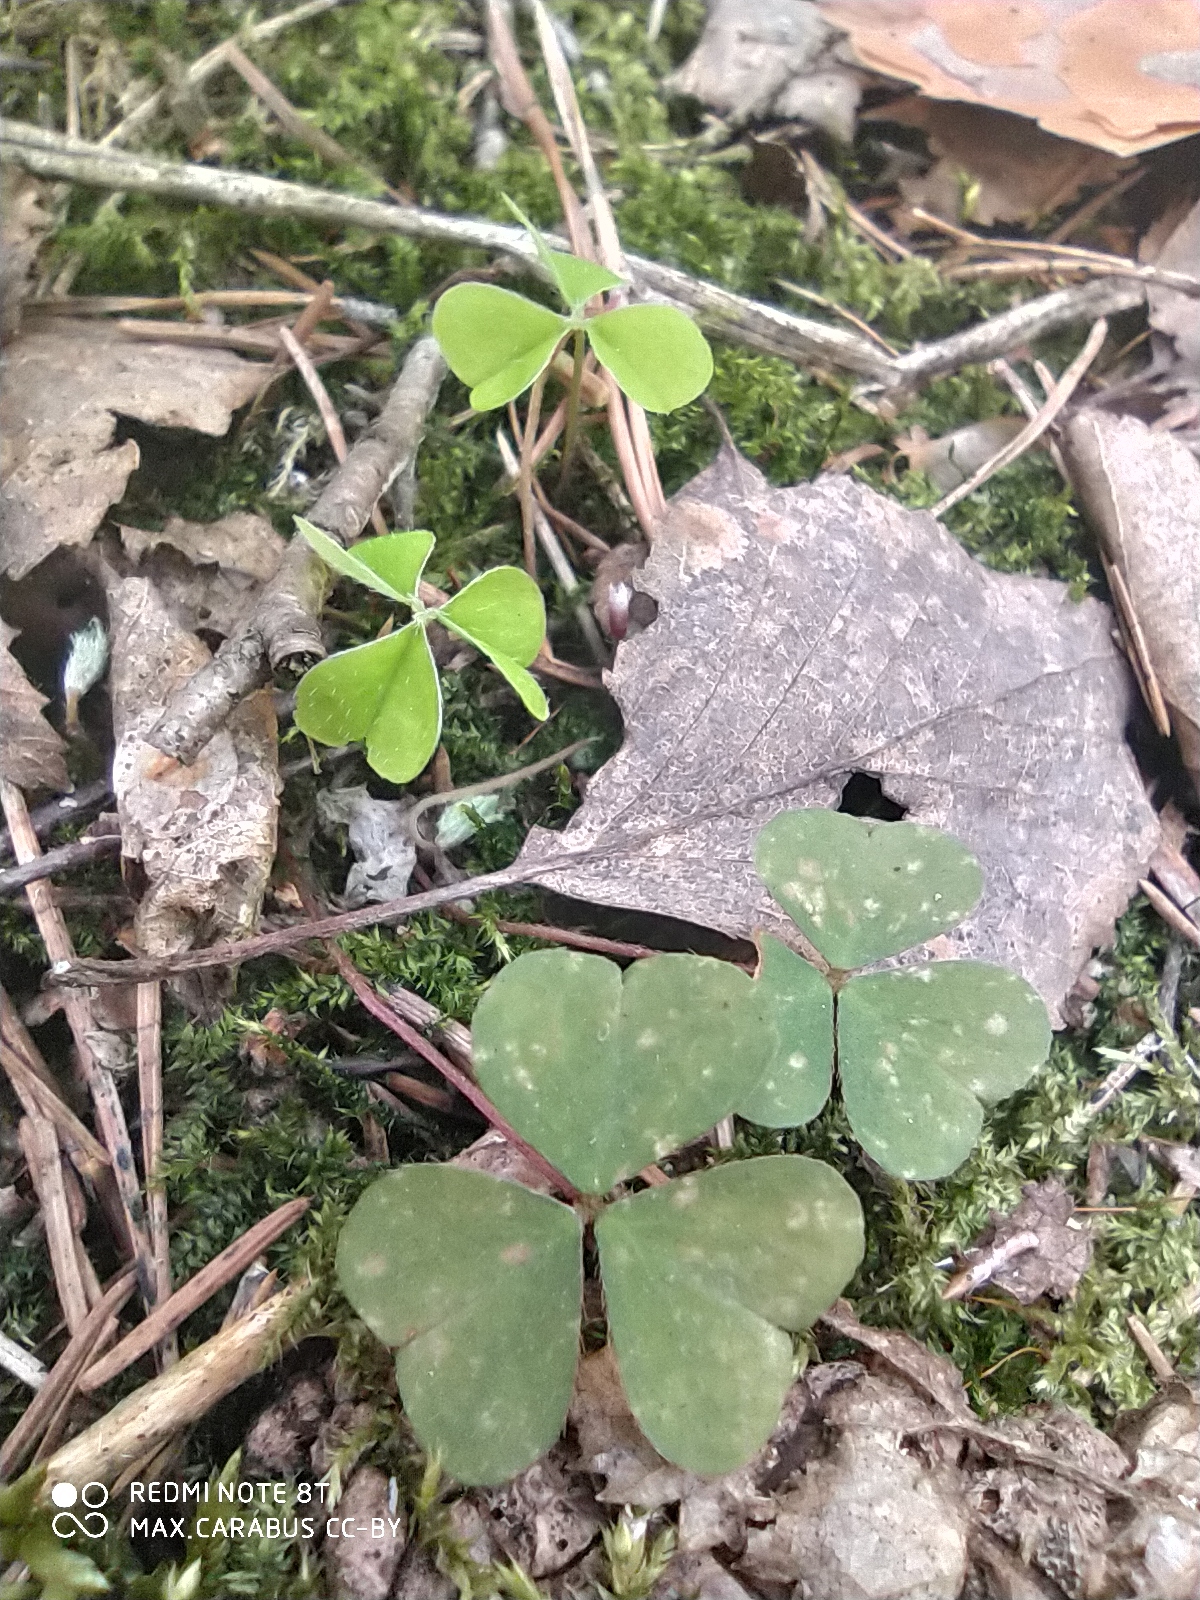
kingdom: Plantae
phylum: Tracheophyta
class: Magnoliopsida
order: Oxalidales
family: Oxalidaceae
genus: Oxalis
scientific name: Oxalis acetosella
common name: Wood-sorrel
